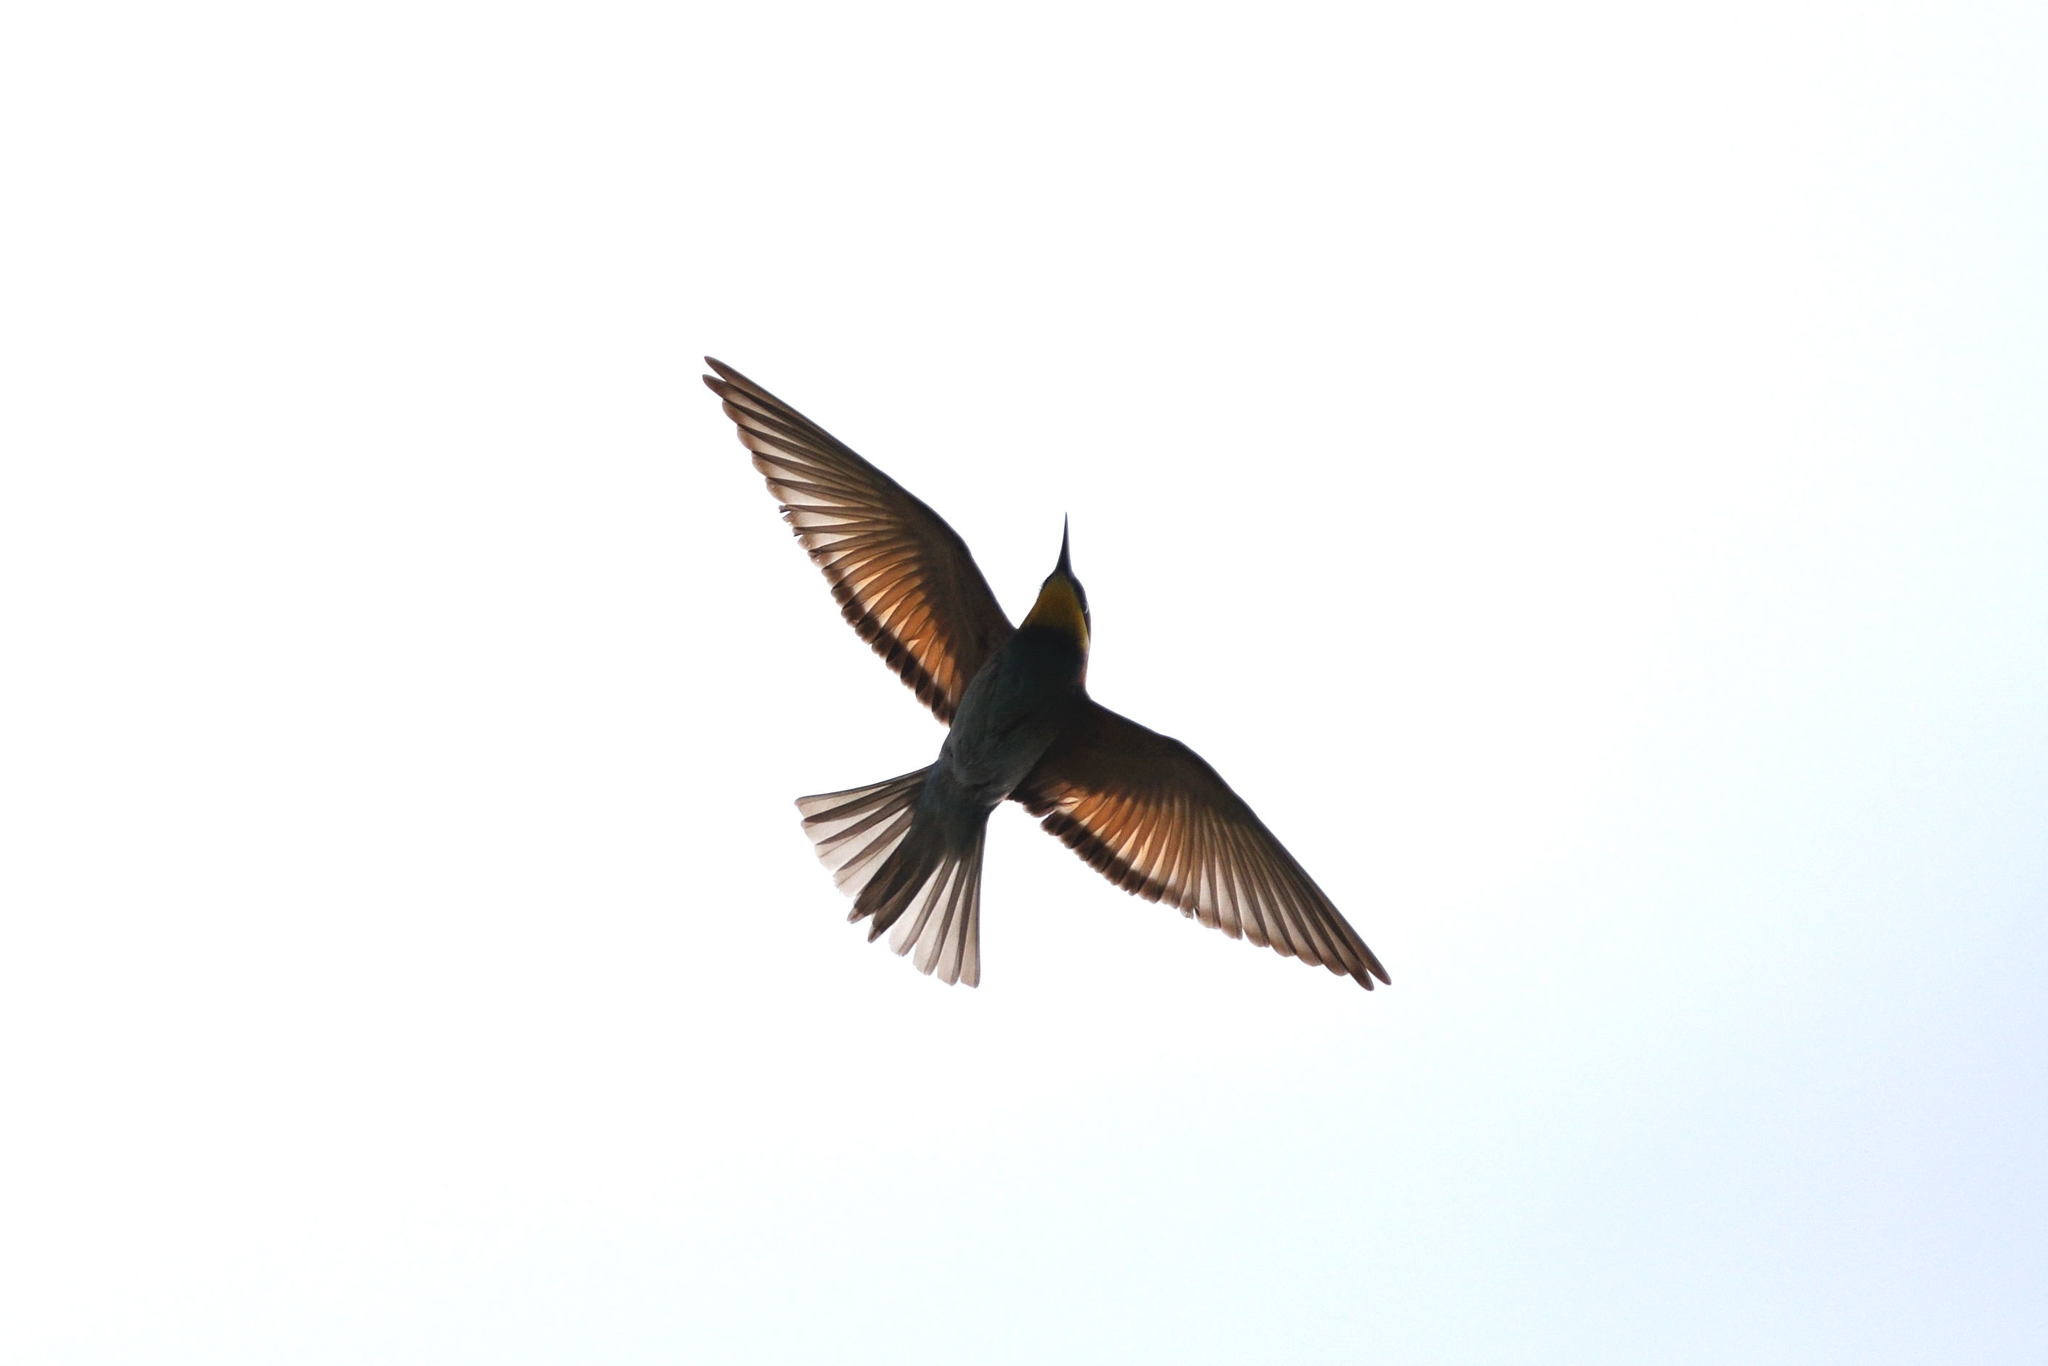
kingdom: Animalia
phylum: Chordata
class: Aves
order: Coraciiformes
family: Meropidae
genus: Merops
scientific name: Merops apiaster
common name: European bee-eater
